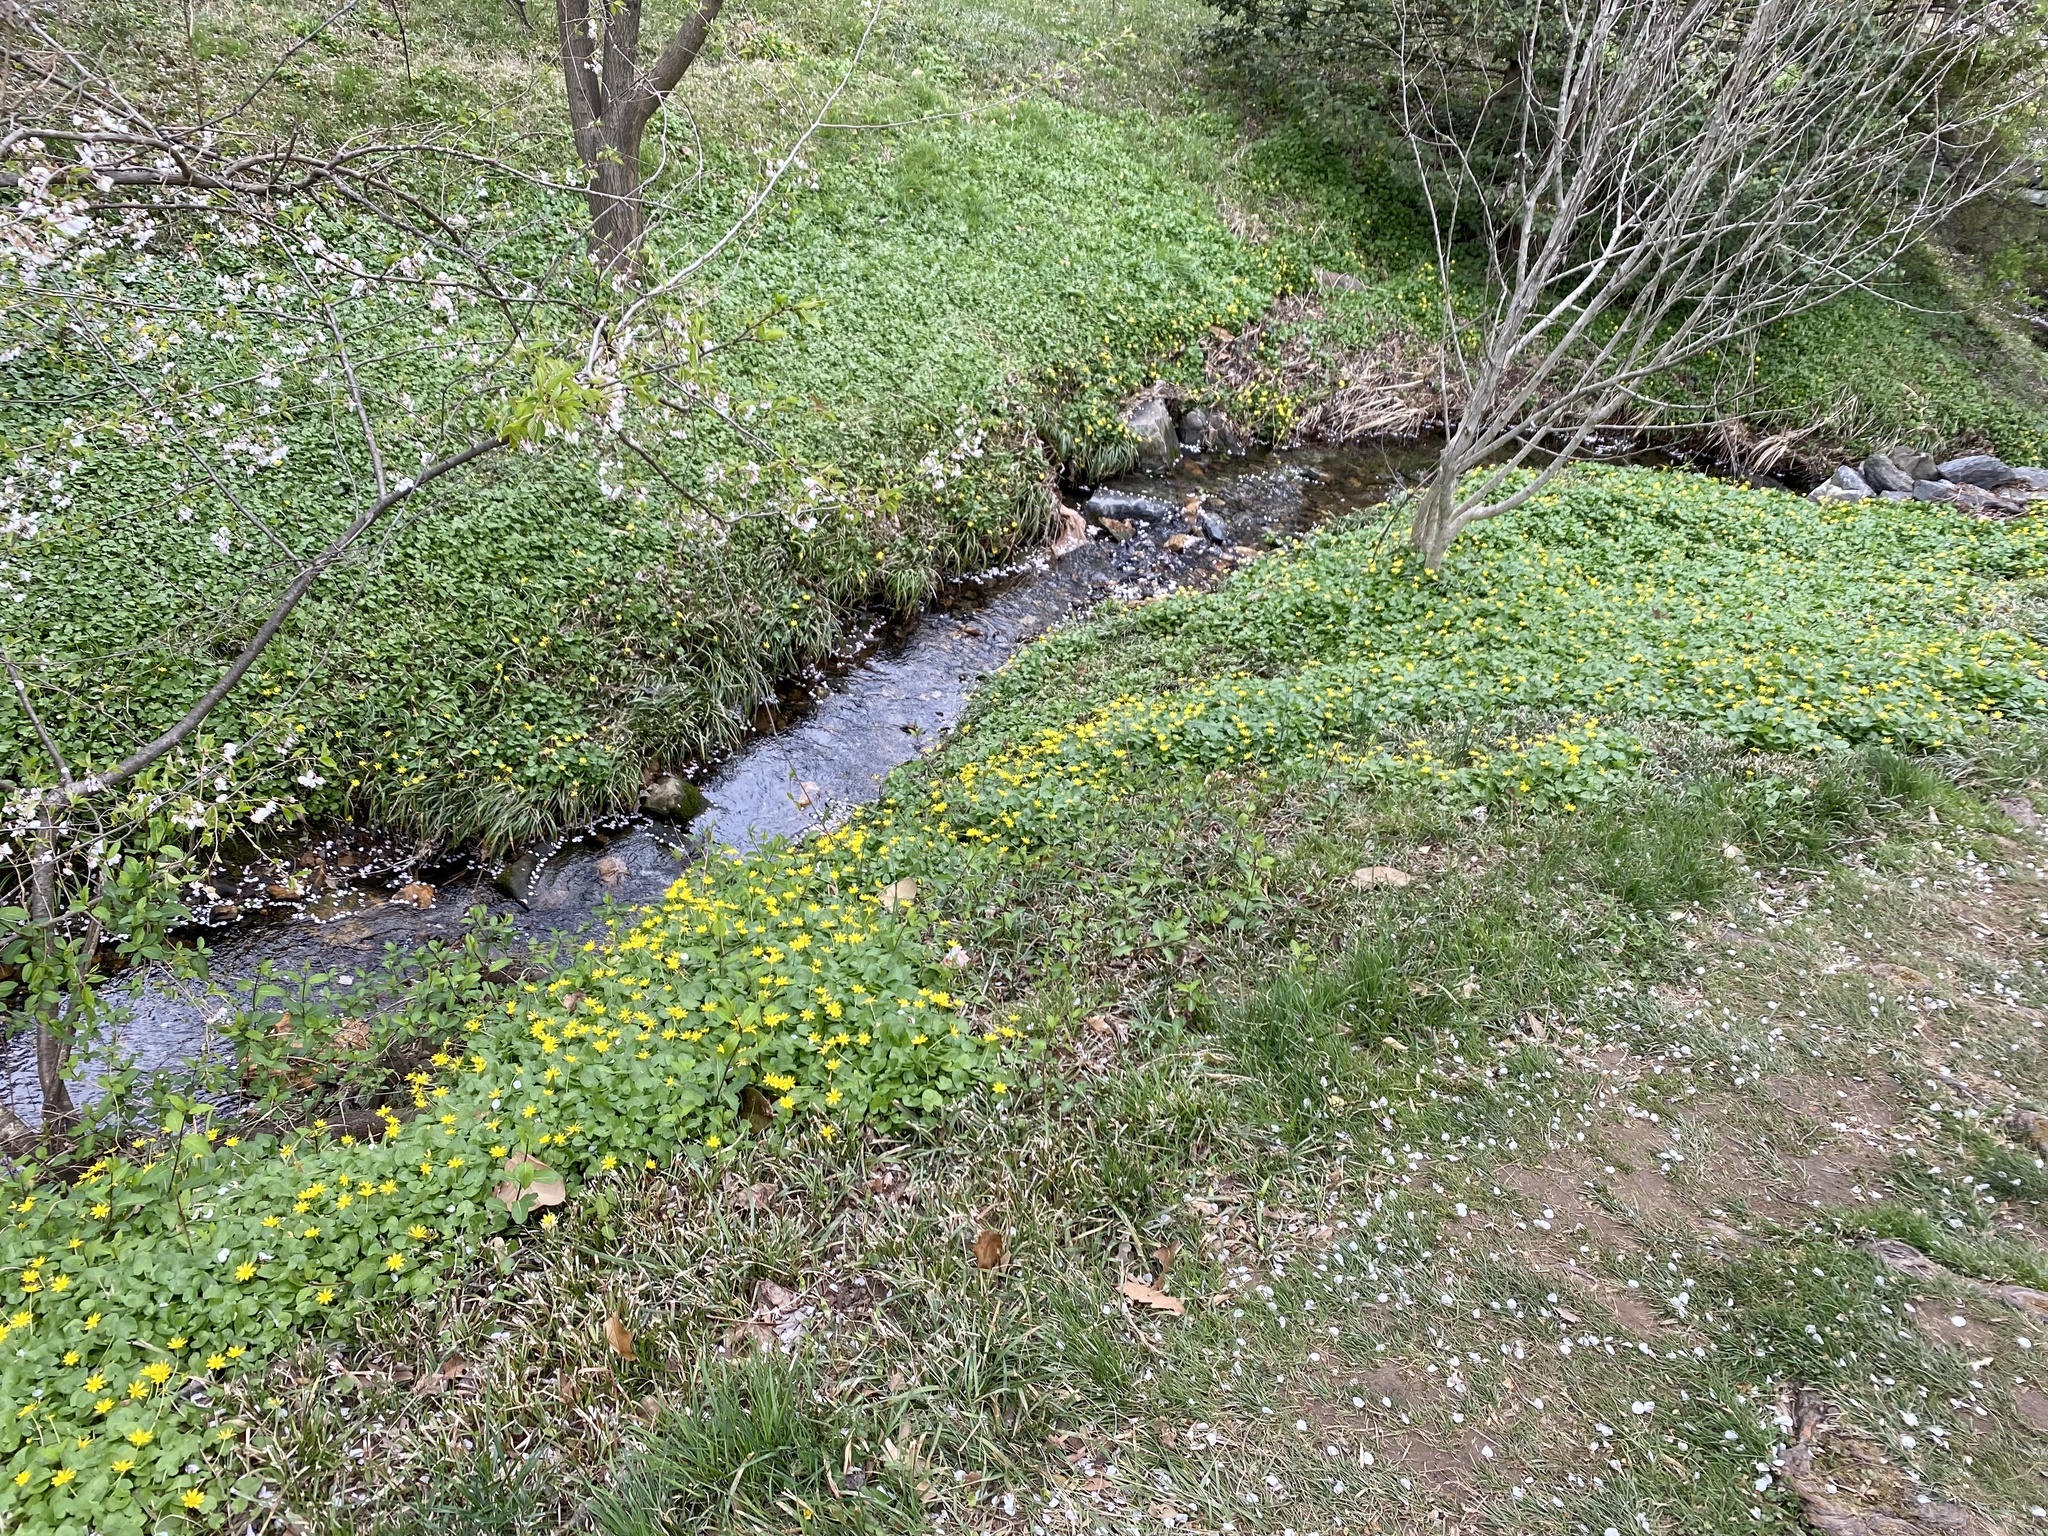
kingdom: Plantae
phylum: Tracheophyta
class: Magnoliopsida
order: Ranunculales
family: Ranunculaceae
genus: Ficaria
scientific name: Ficaria verna
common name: Lesser celandine
